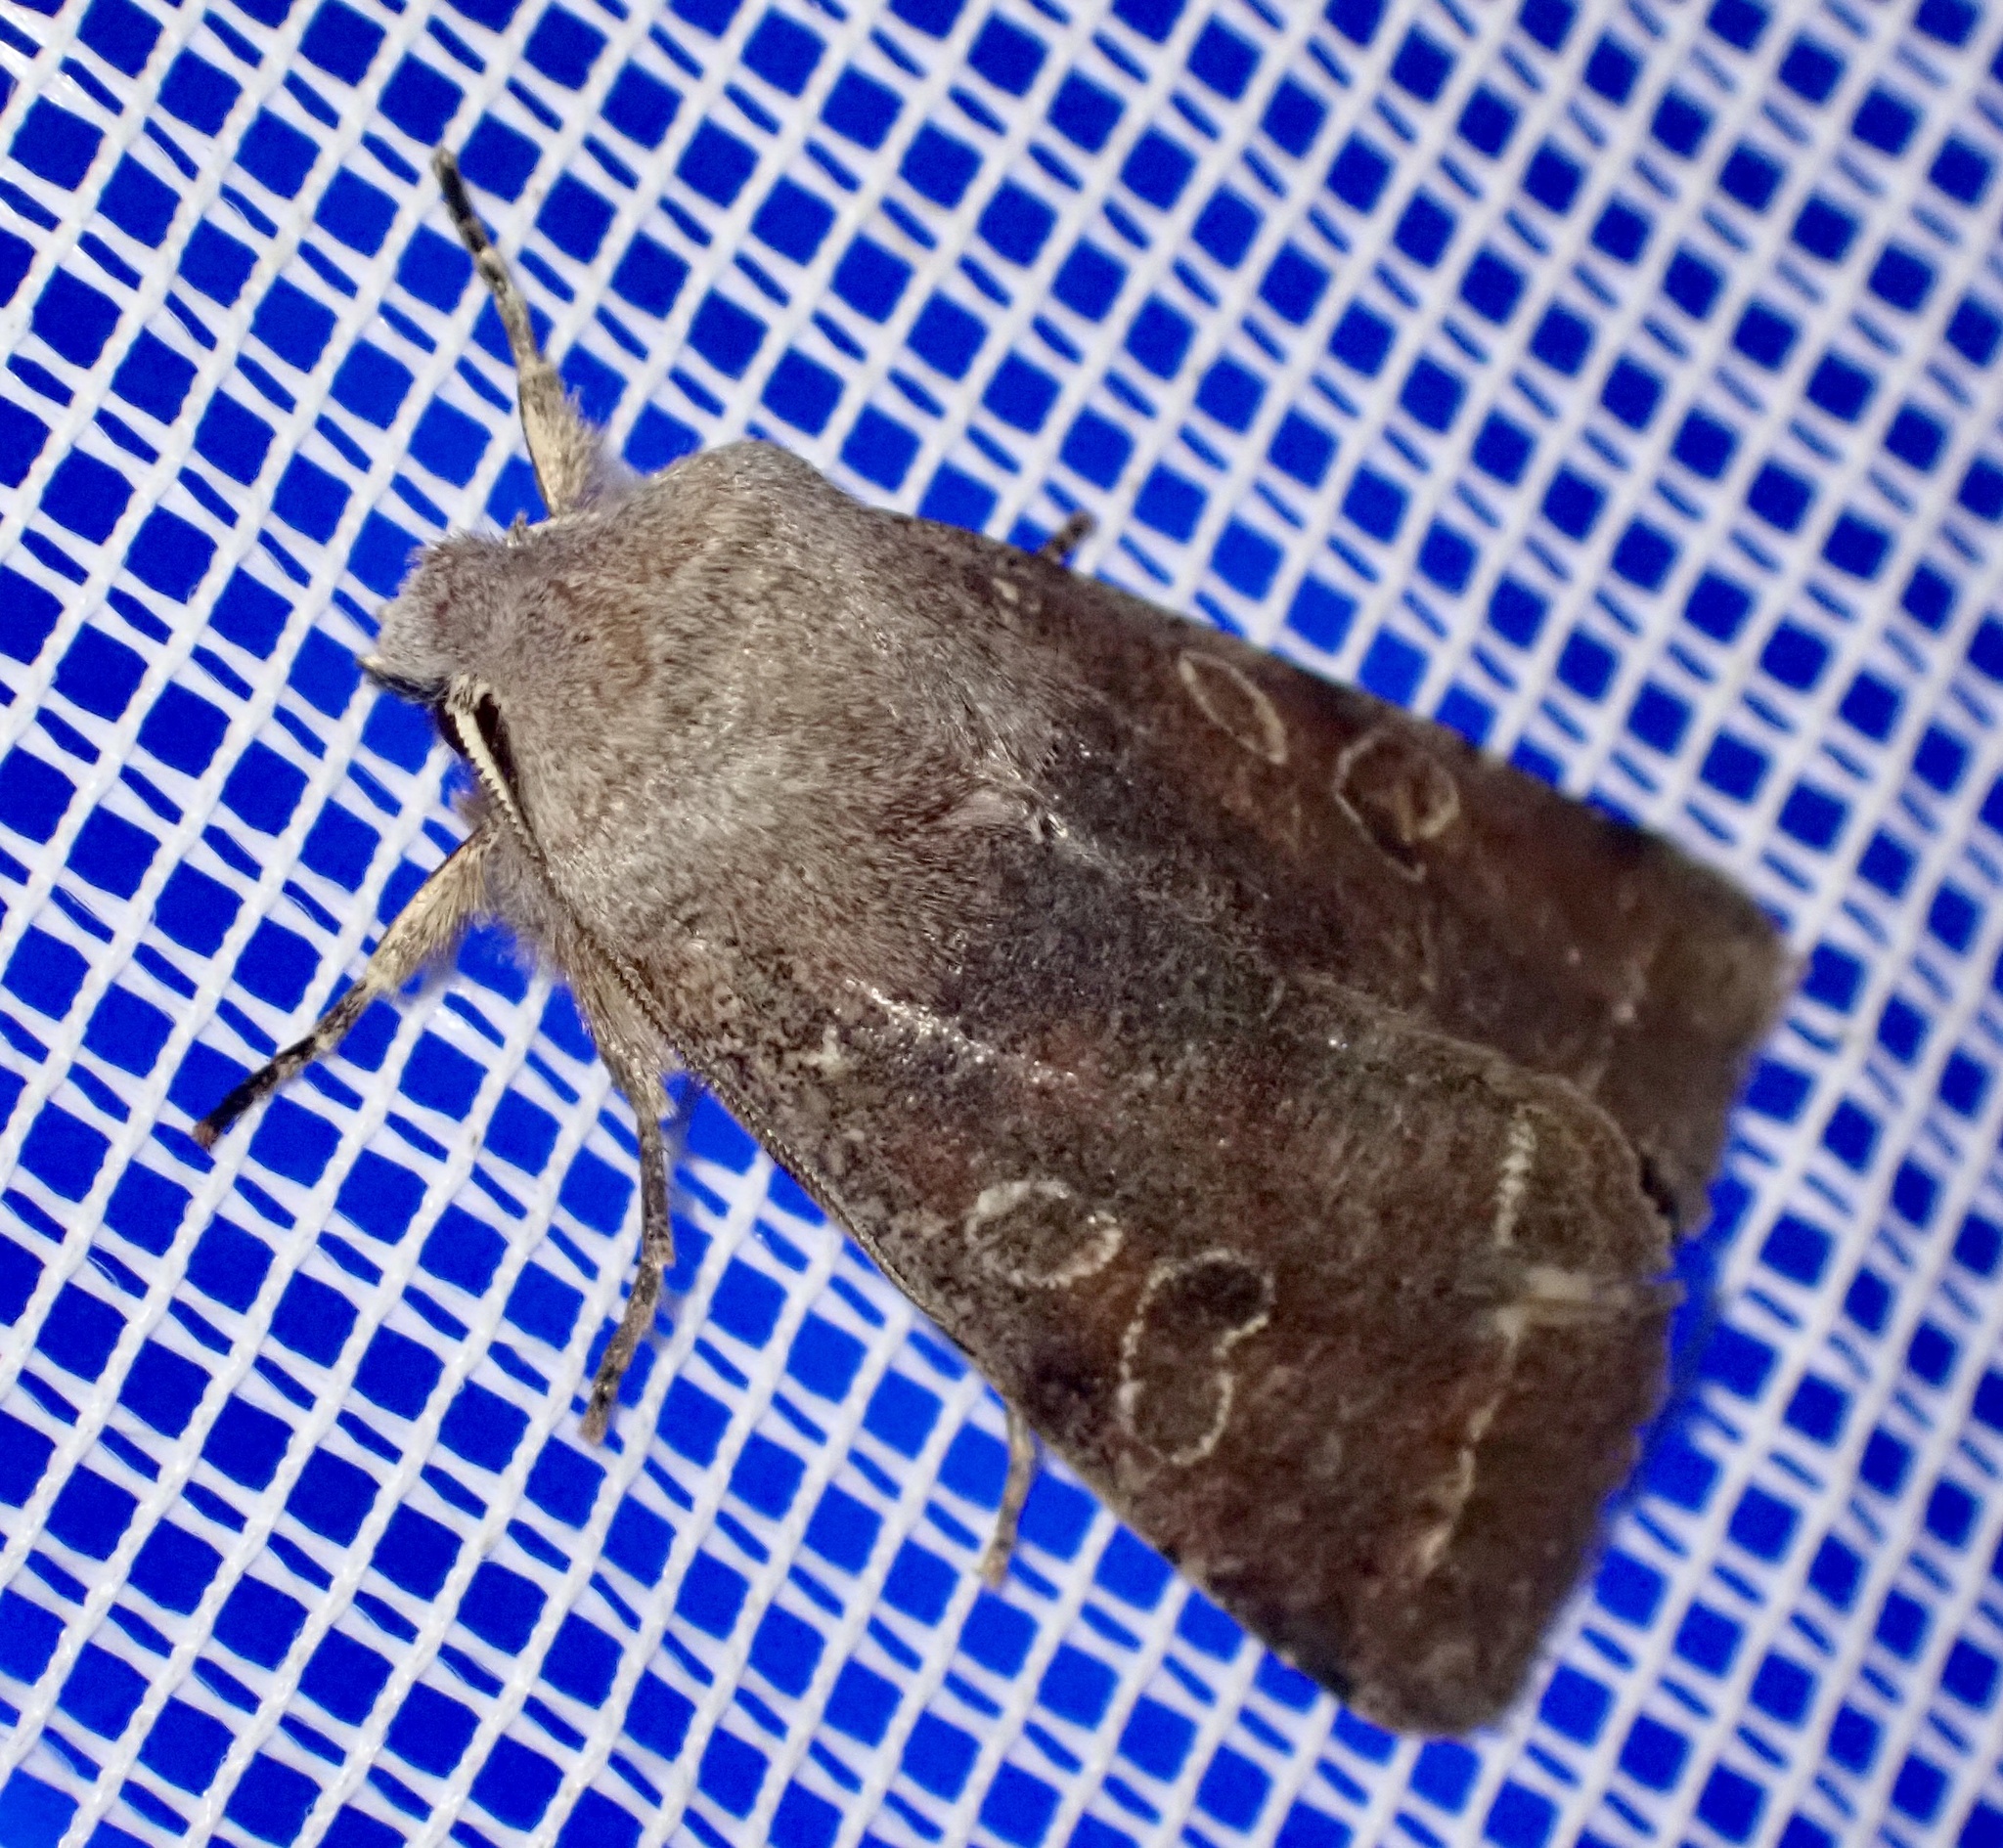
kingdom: Animalia
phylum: Arthropoda
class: Insecta
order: Lepidoptera
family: Noctuidae
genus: Orthosia
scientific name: Orthosia incerta
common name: Clouded drab
